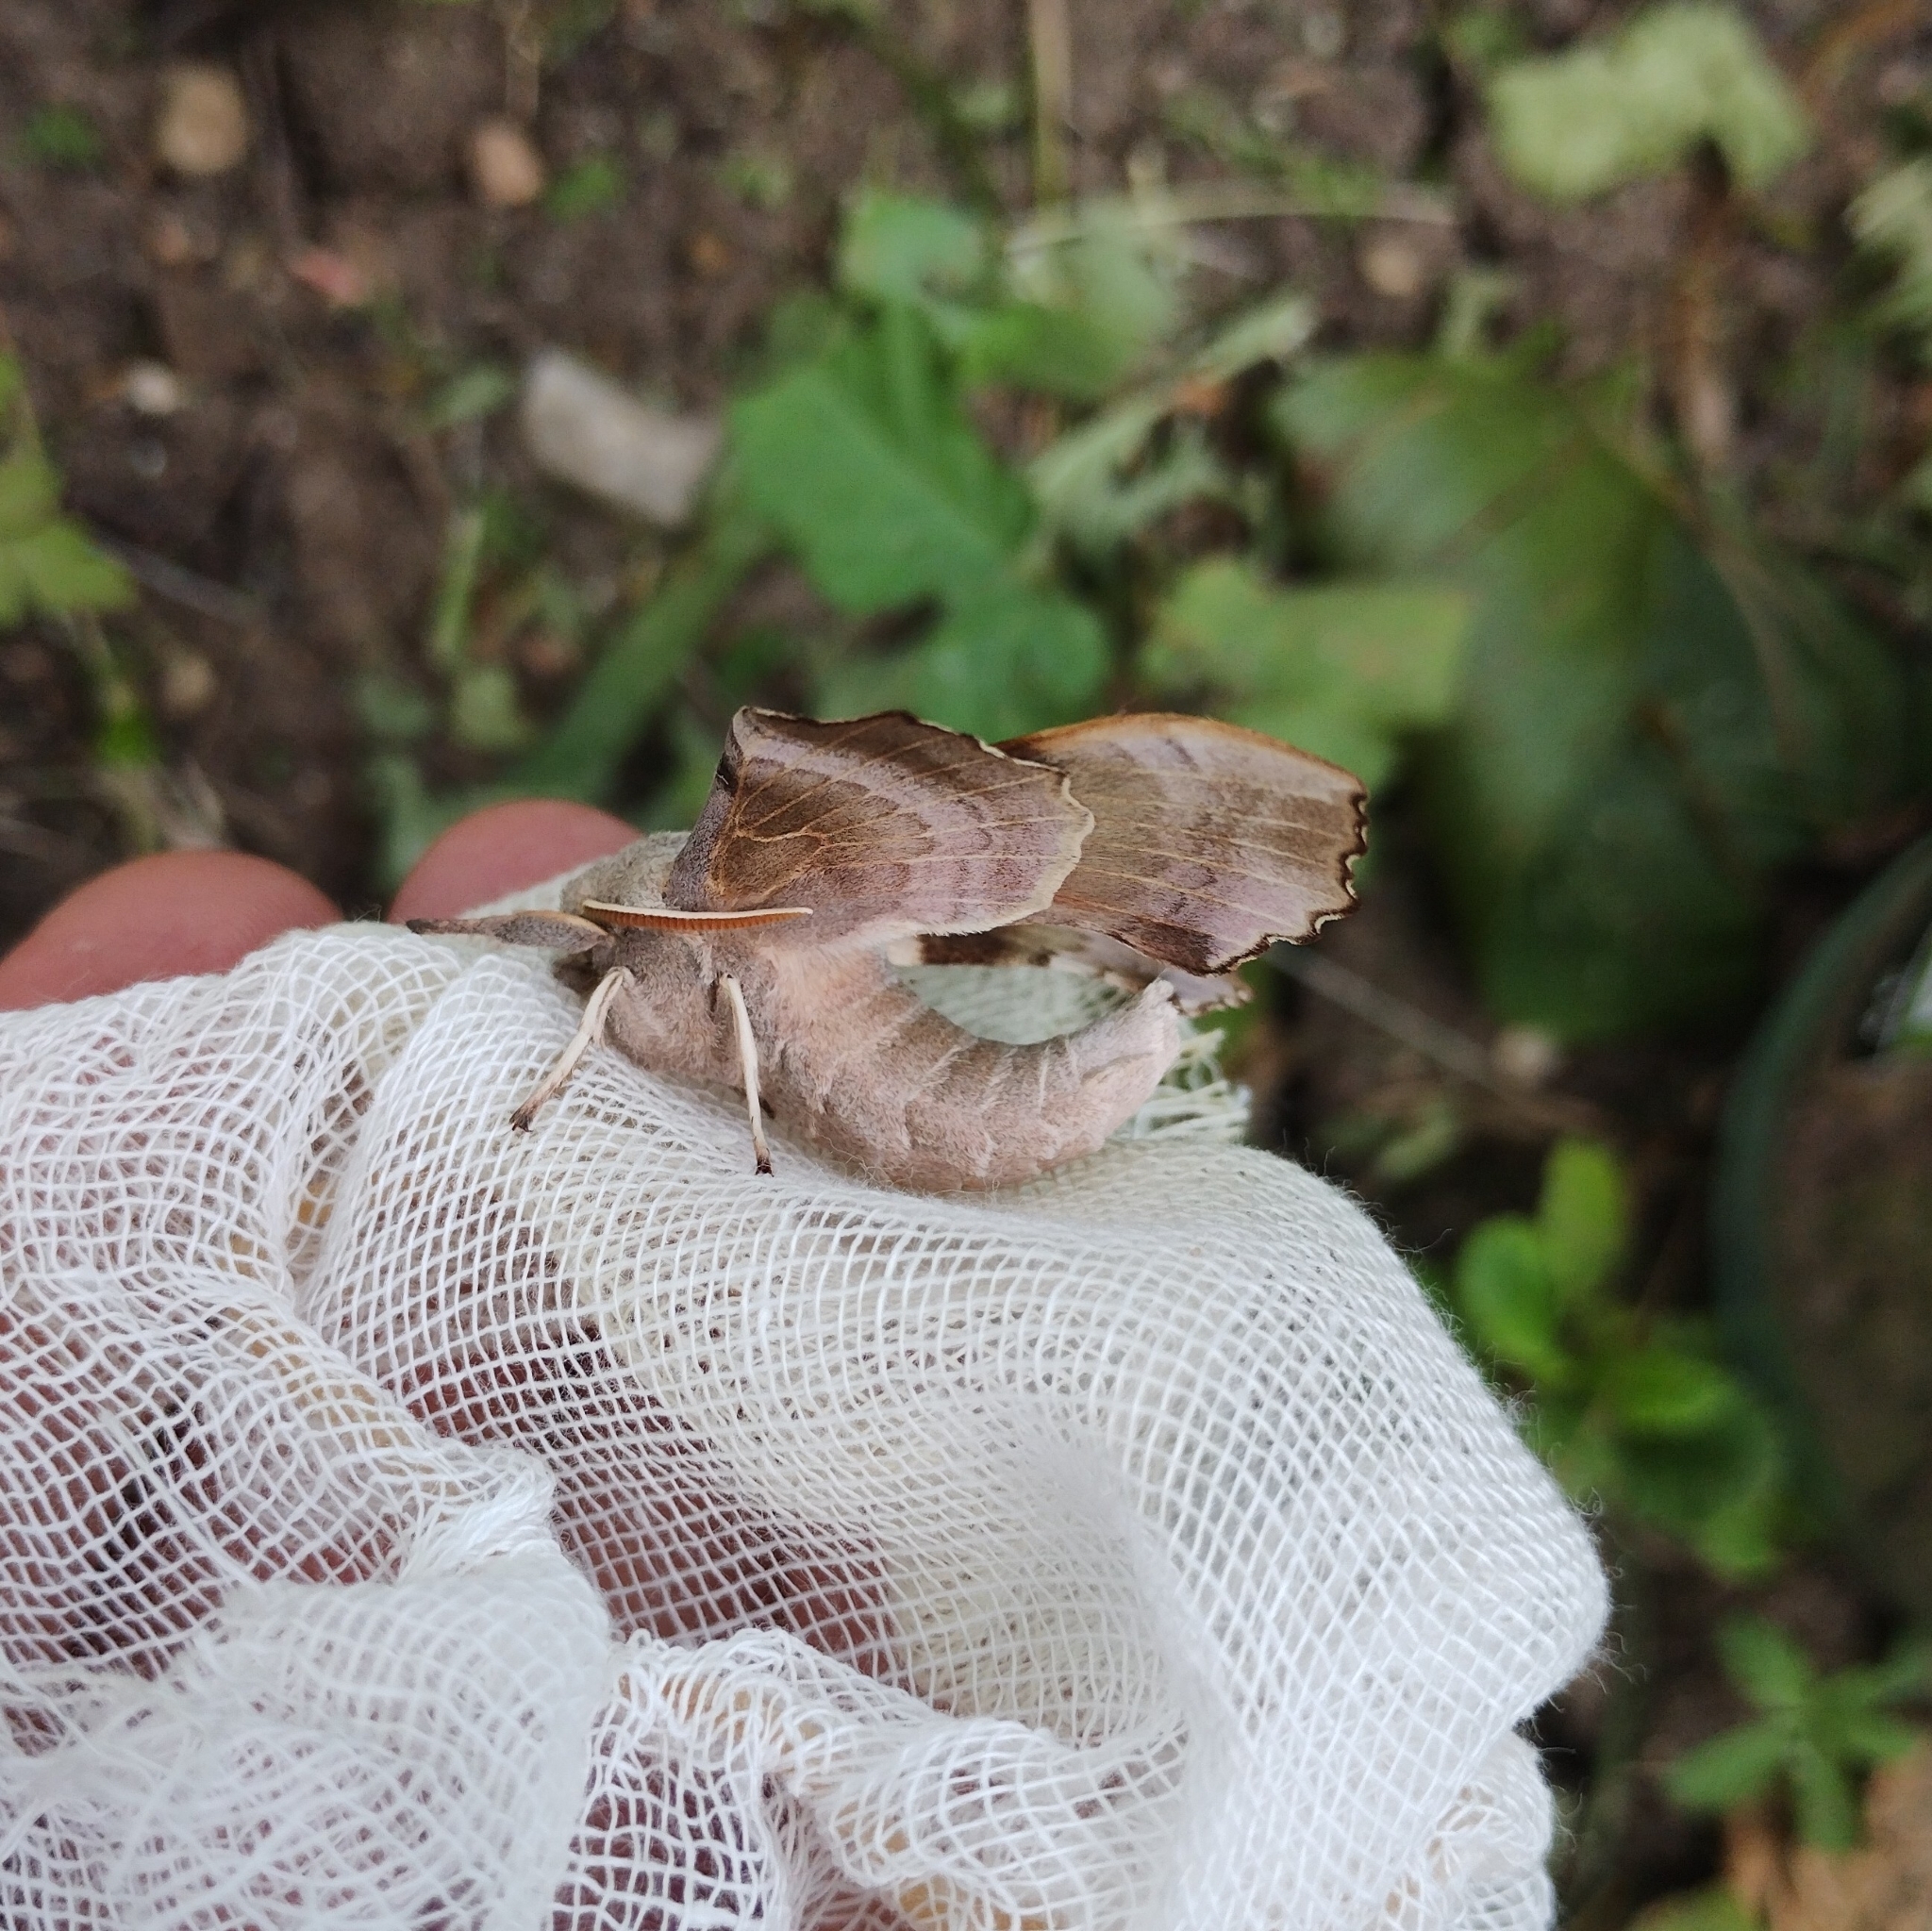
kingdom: Animalia
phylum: Arthropoda
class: Insecta
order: Lepidoptera
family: Sphingidae
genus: Laothoe
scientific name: Laothoe populi
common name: Poplar hawk-moth
